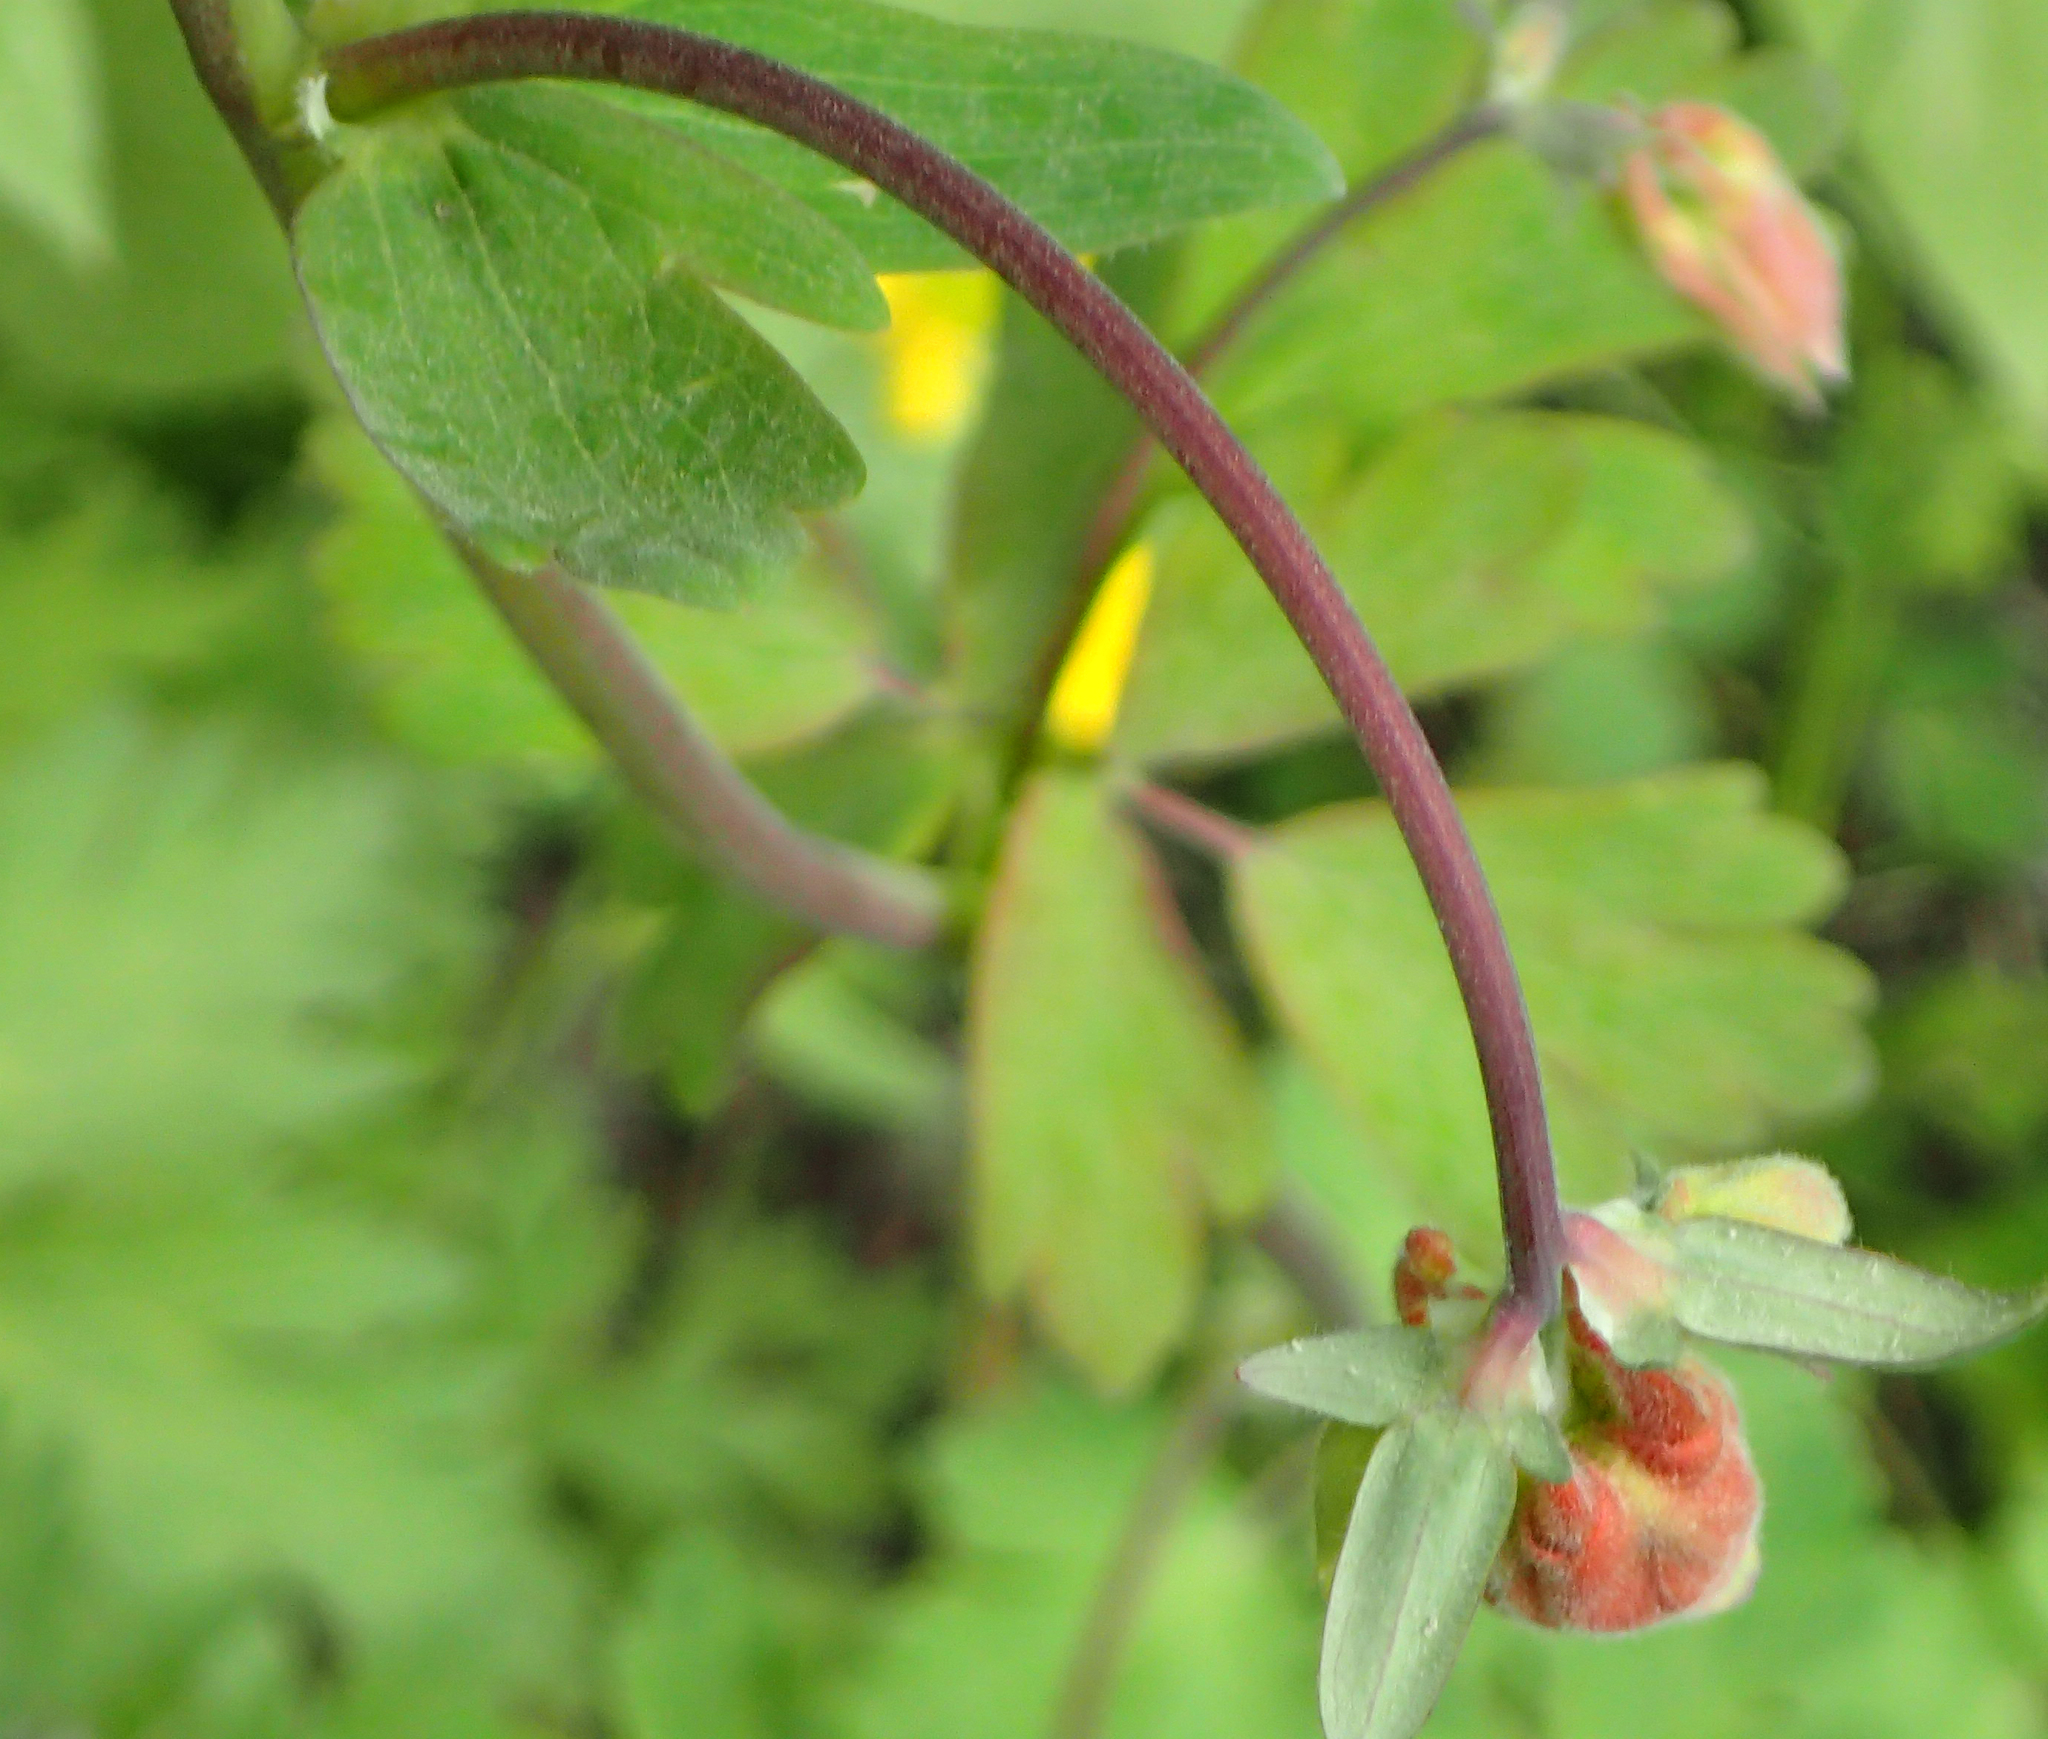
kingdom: Plantae
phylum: Tracheophyta
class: Magnoliopsida
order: Ranunculales
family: Ranunculaceae
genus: Aquilegia
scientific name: Aquilegia formosa
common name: Sitka columbine
